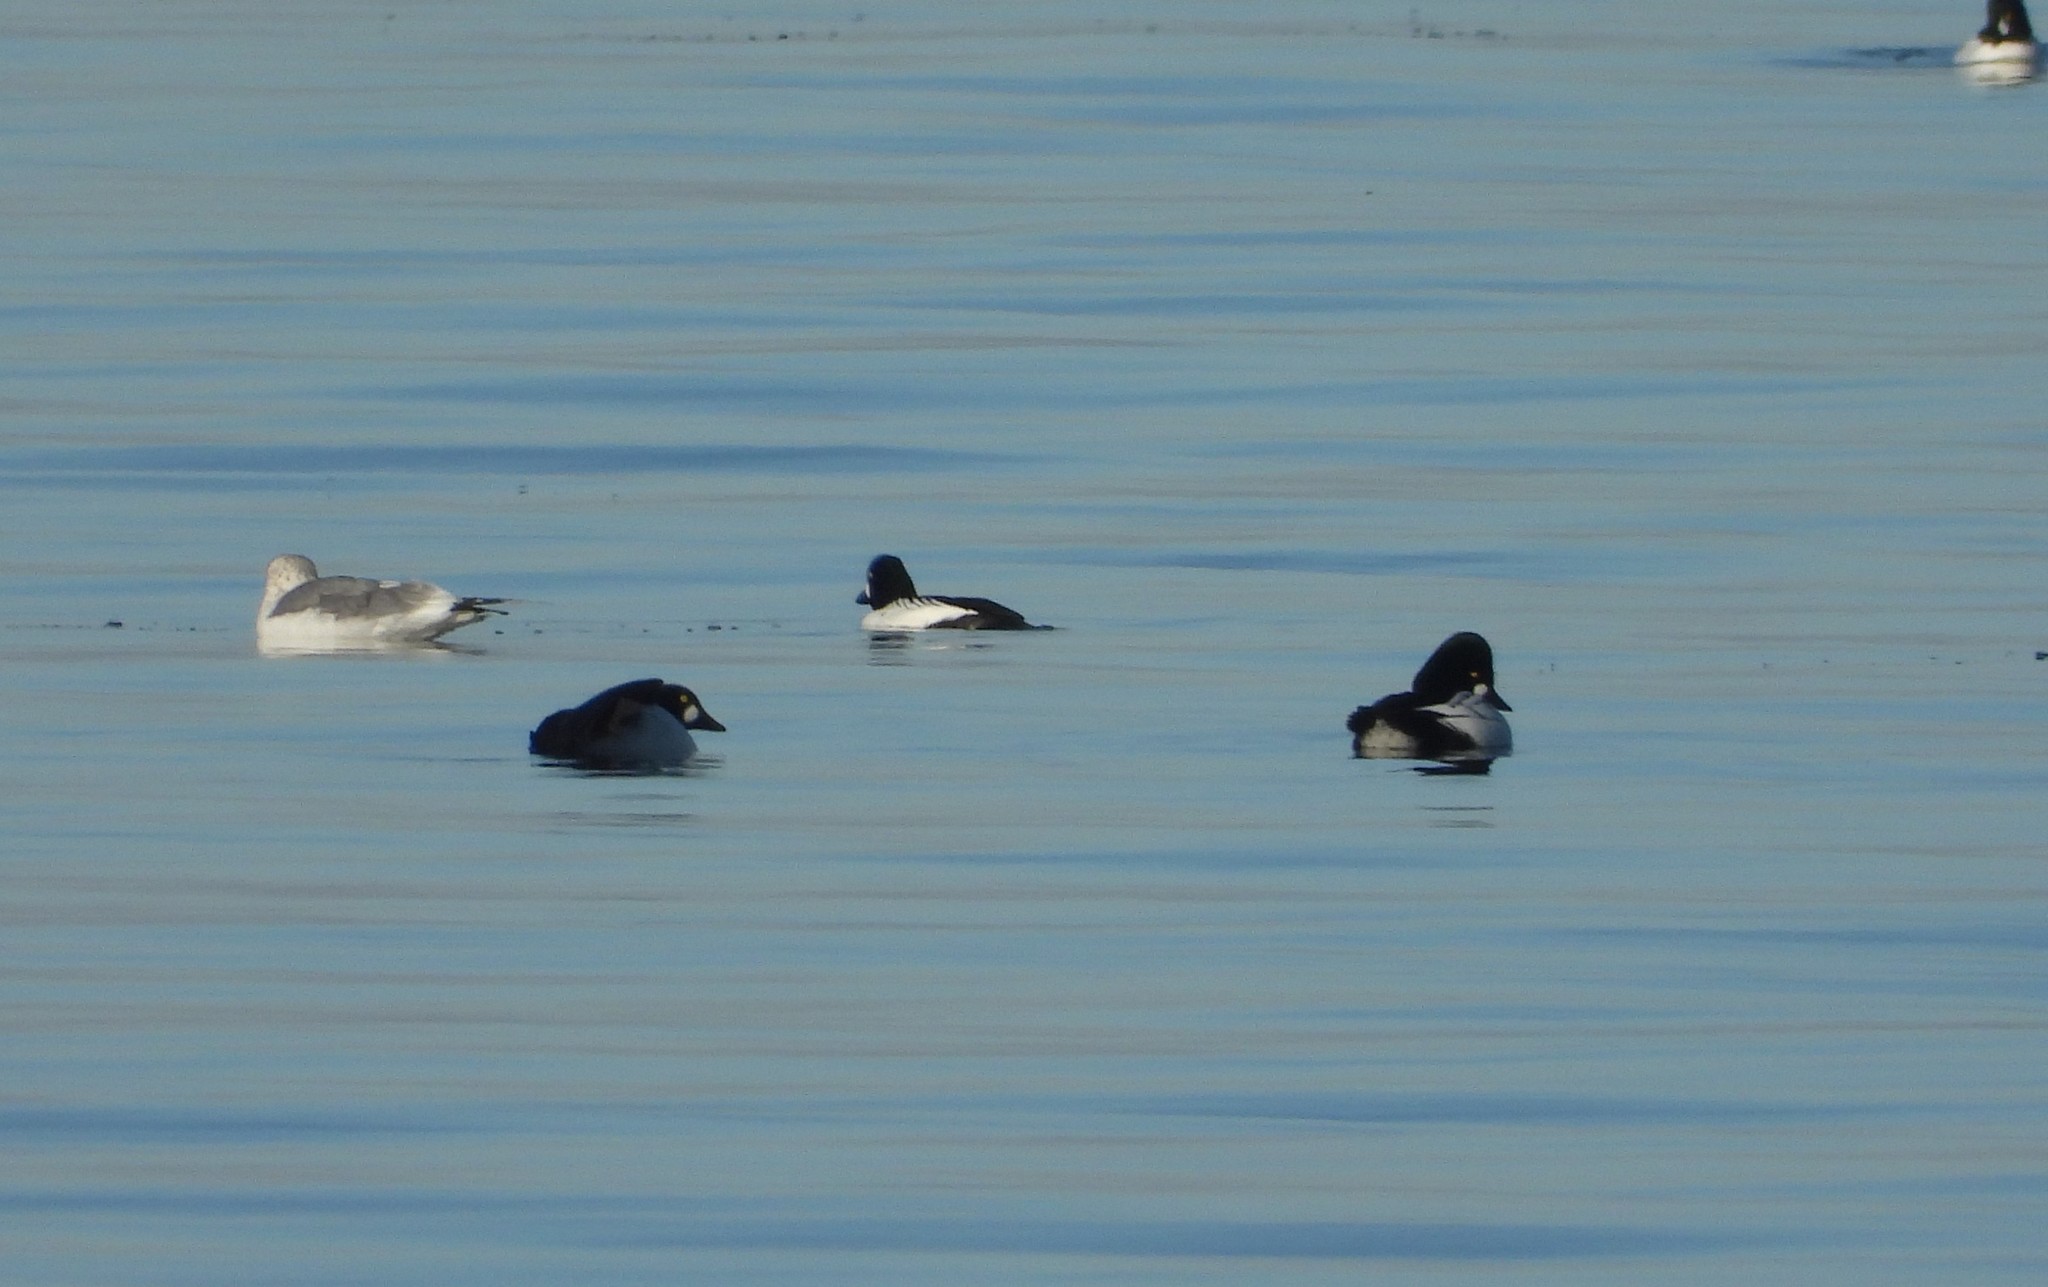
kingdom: Animalia
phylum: Chordata
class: Aves
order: Anseriformes
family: Anatidae
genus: Bucephala
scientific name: Bucephala clangula
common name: Common goldeneye
